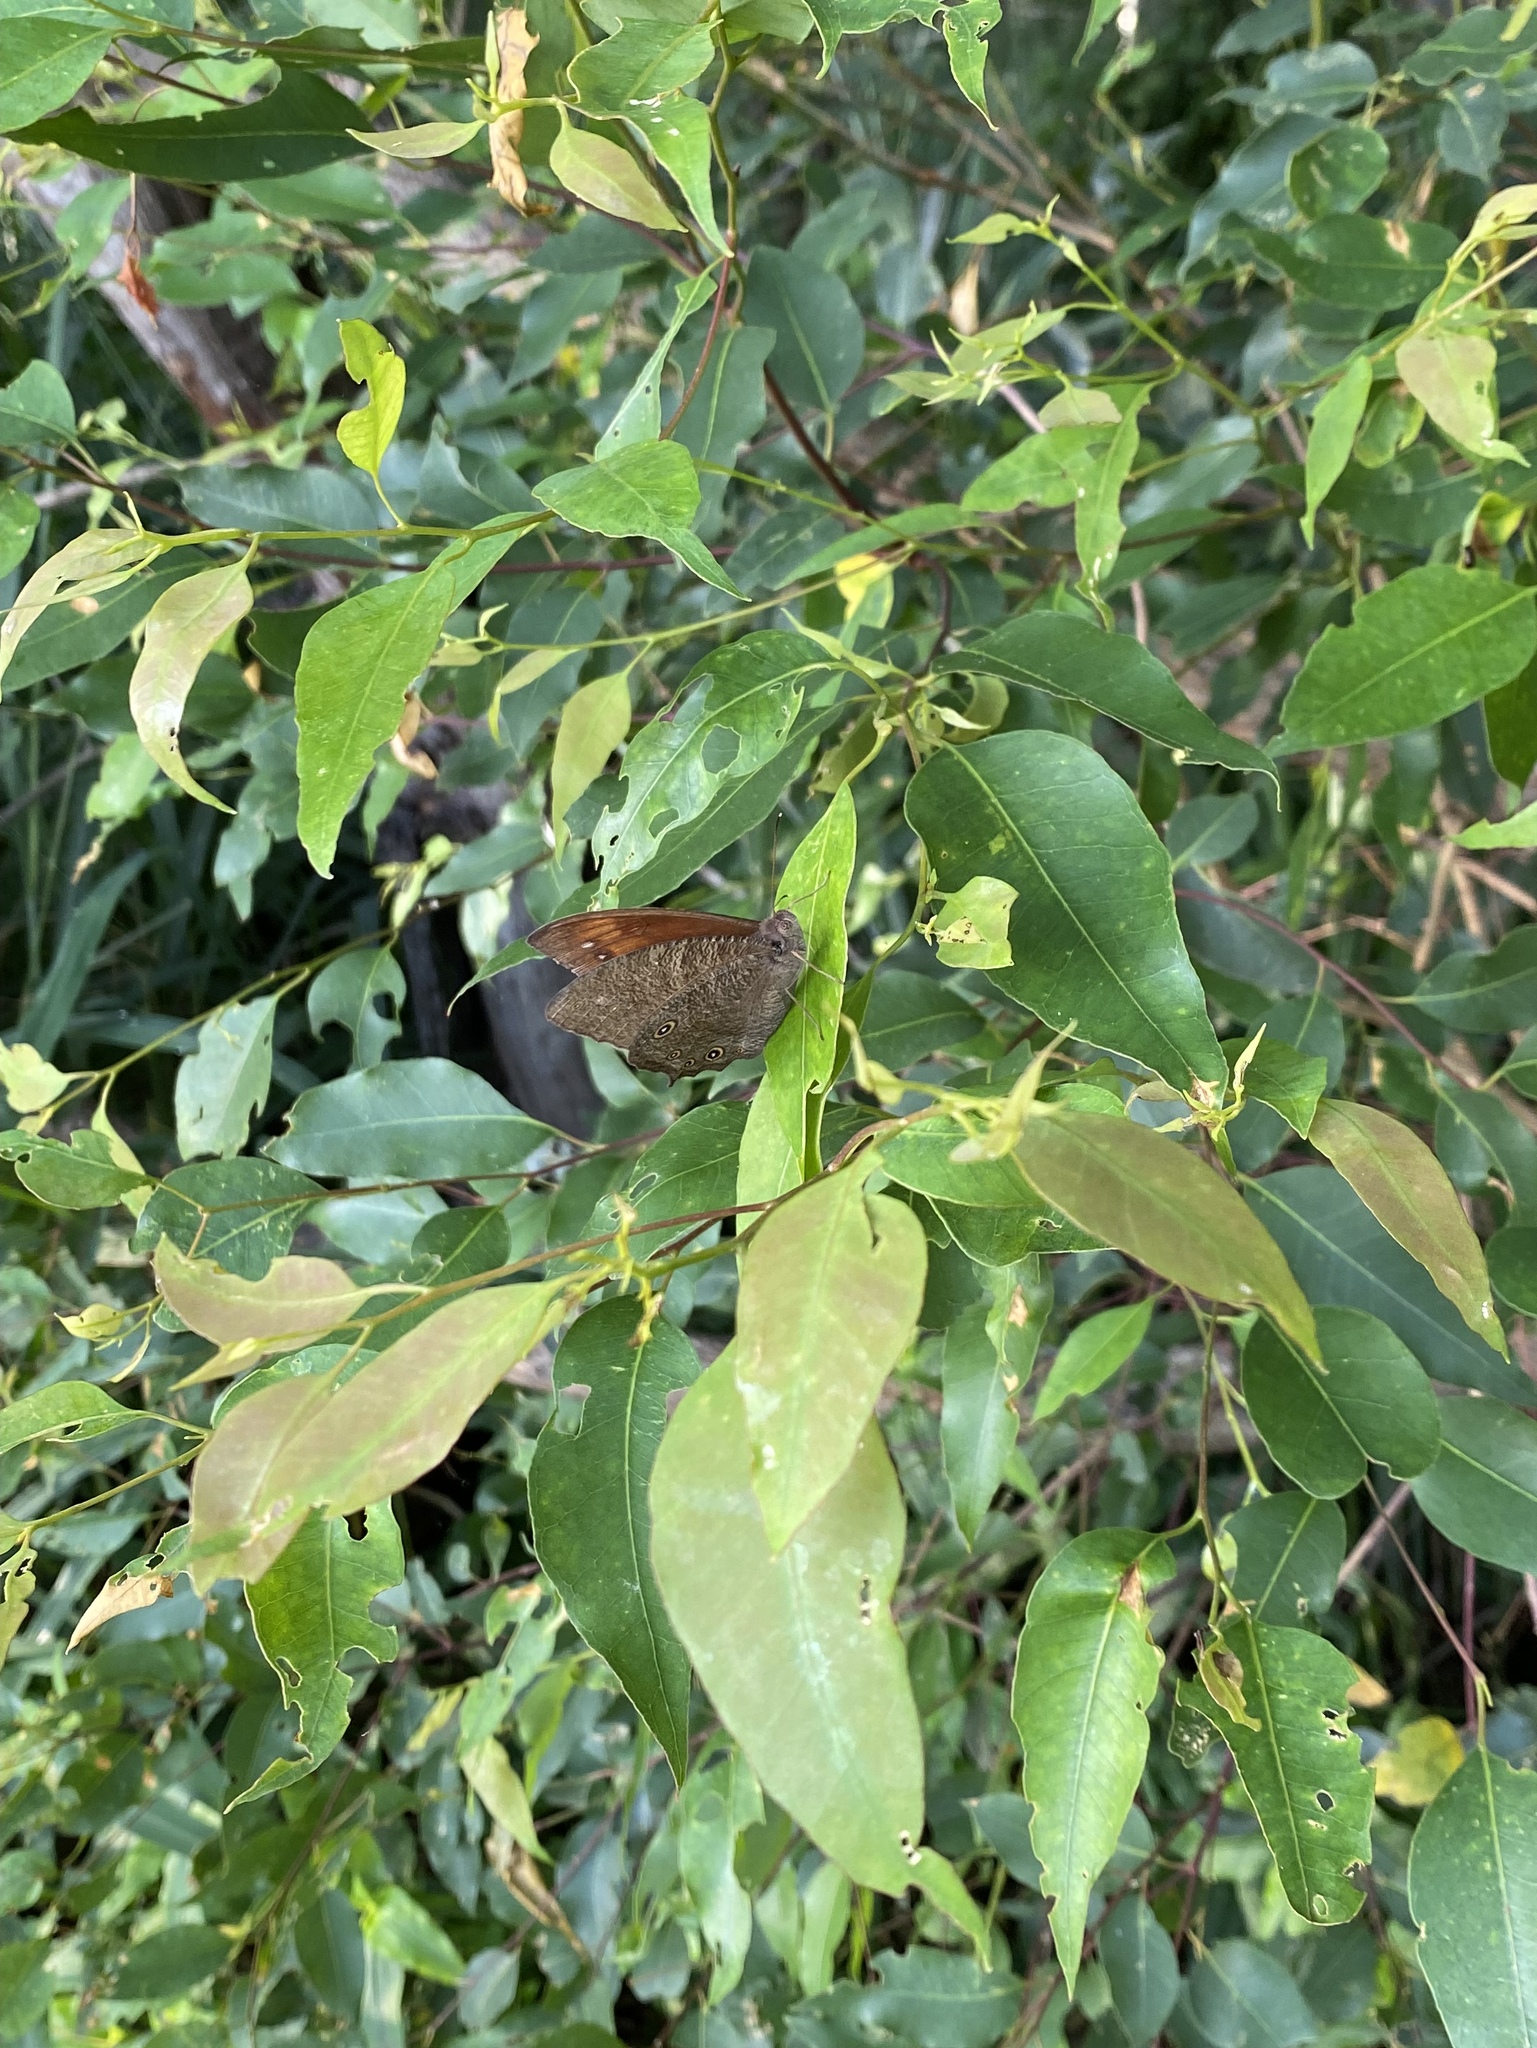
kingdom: Animalia
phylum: Arthropoda
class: Insecta
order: Lepidoptera
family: Nymphalidae
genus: Melanitis
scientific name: Melanitis leda
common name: Twilight brown
